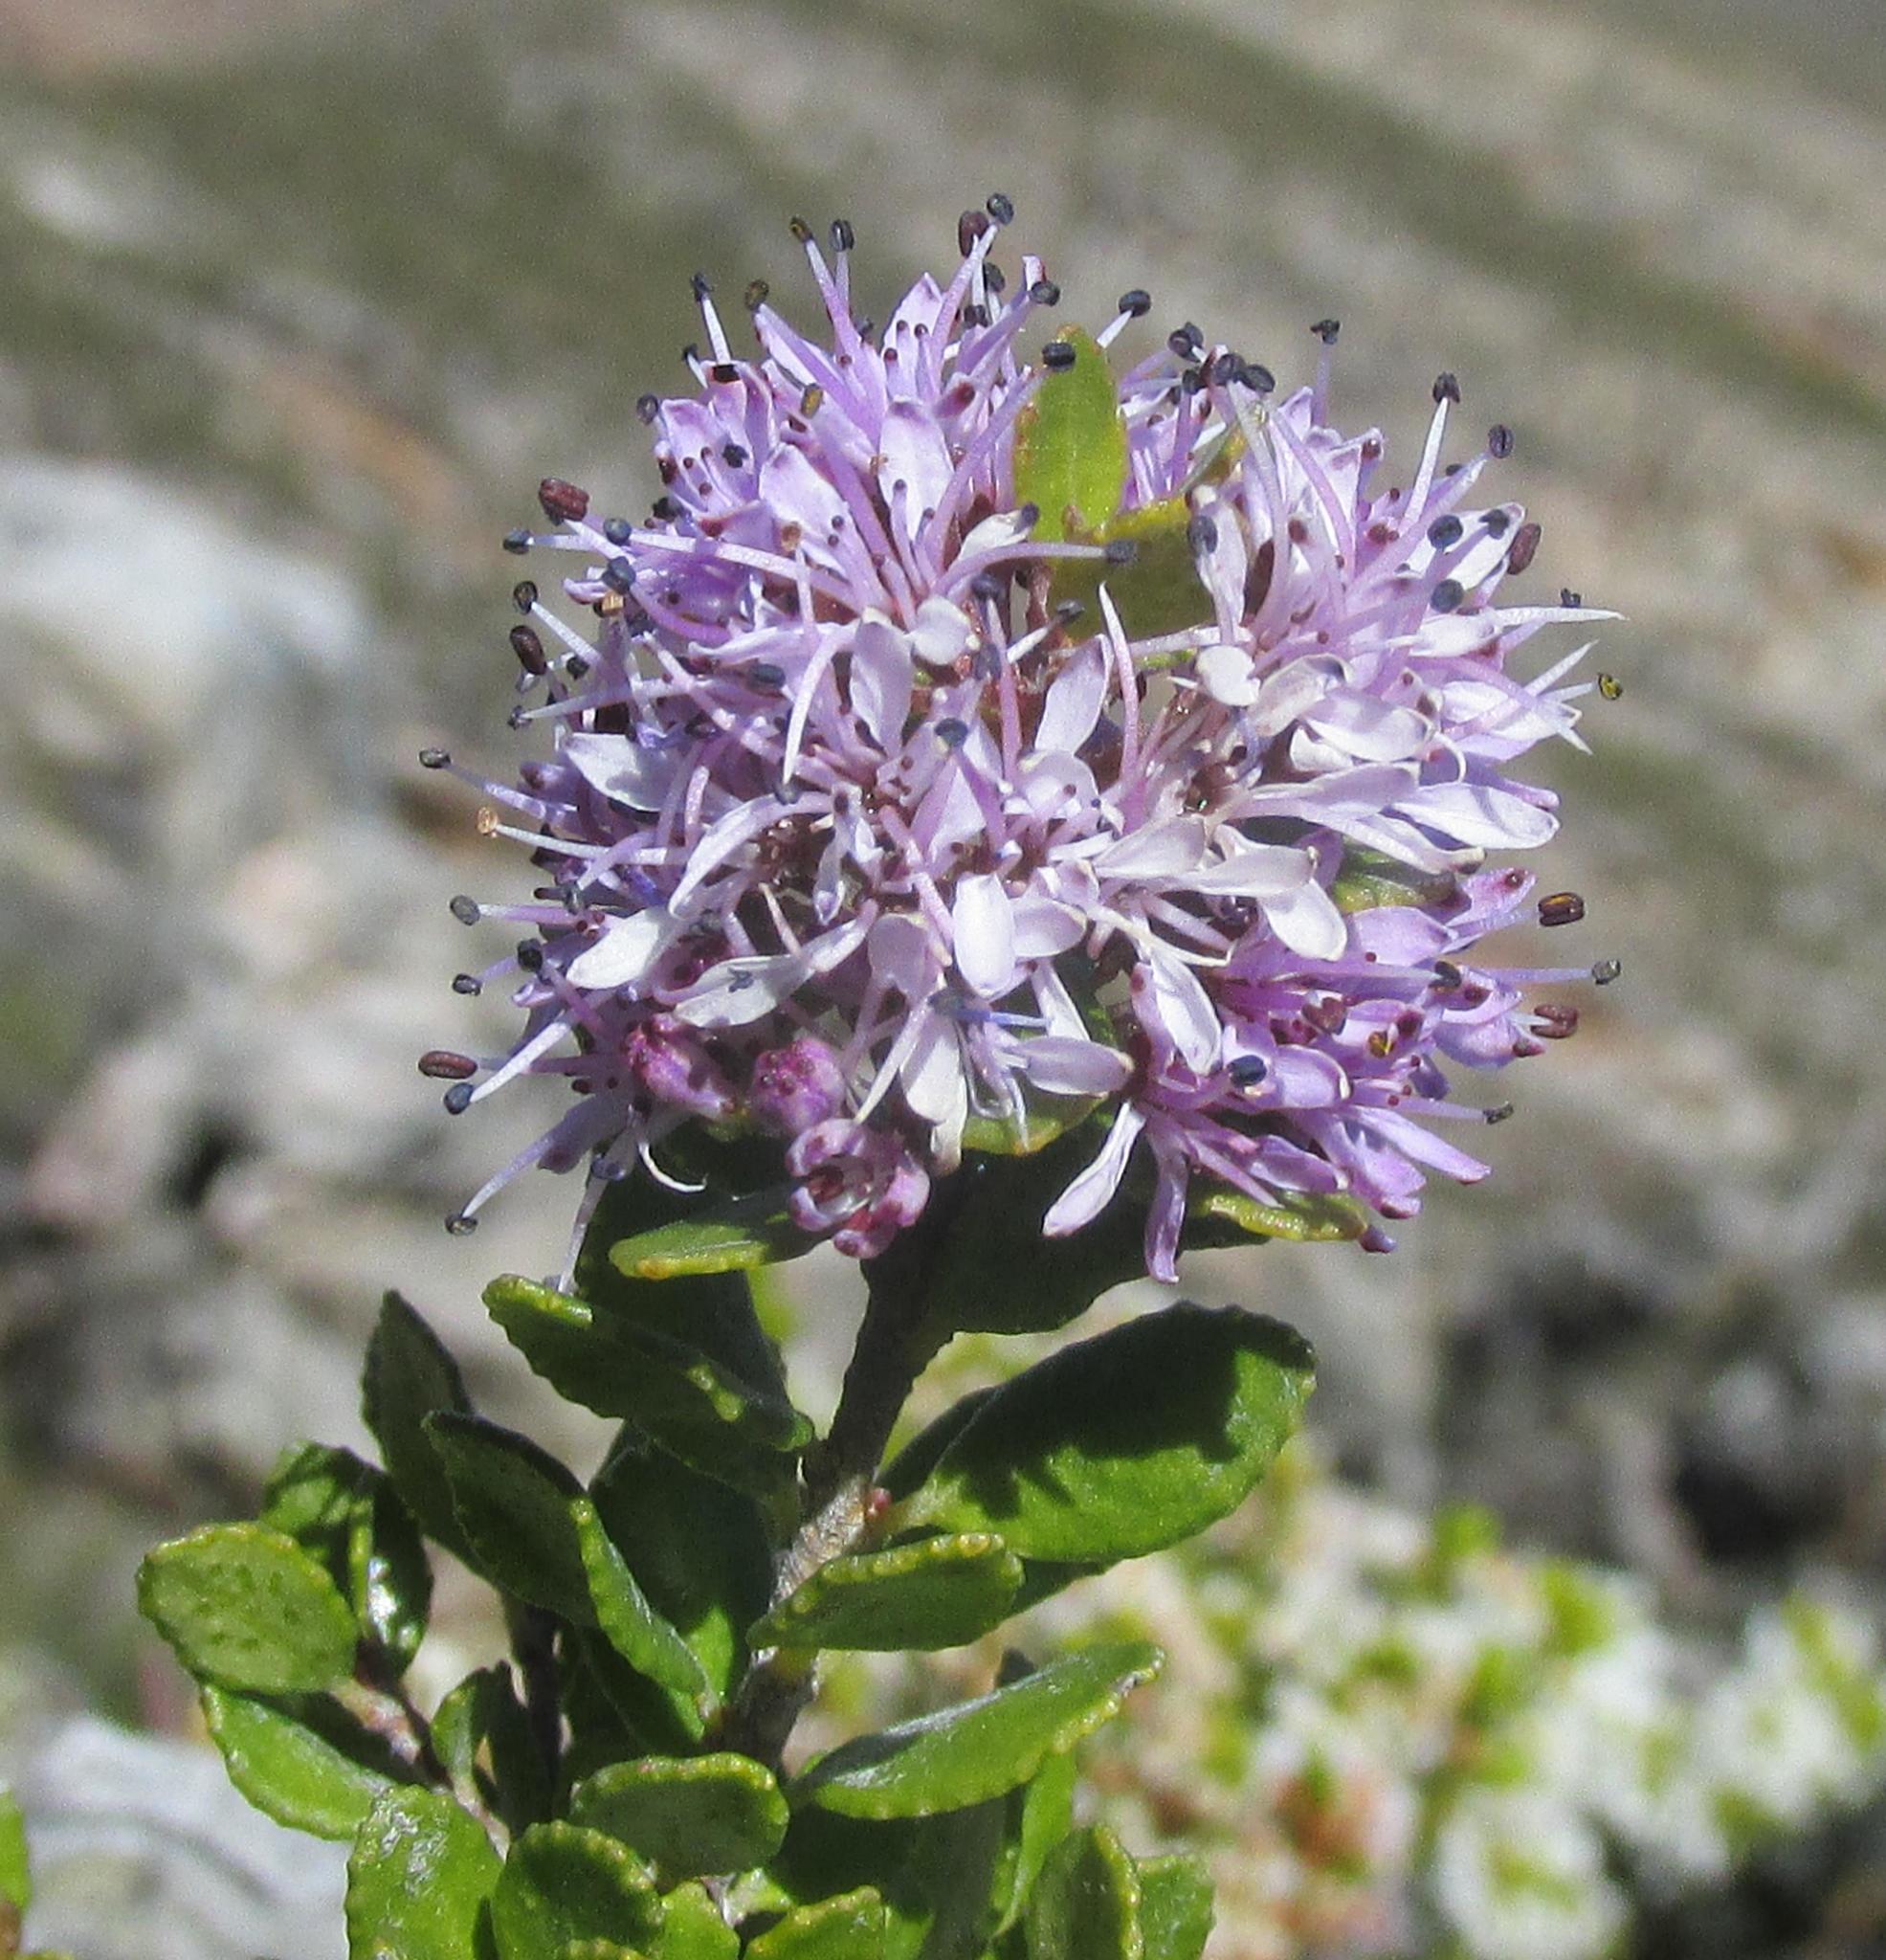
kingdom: Plantae
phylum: Tracheophyta
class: Magnoliopsida
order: Sapindales
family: Rutaceae
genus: Agathosma
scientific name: Agathosma venusta
